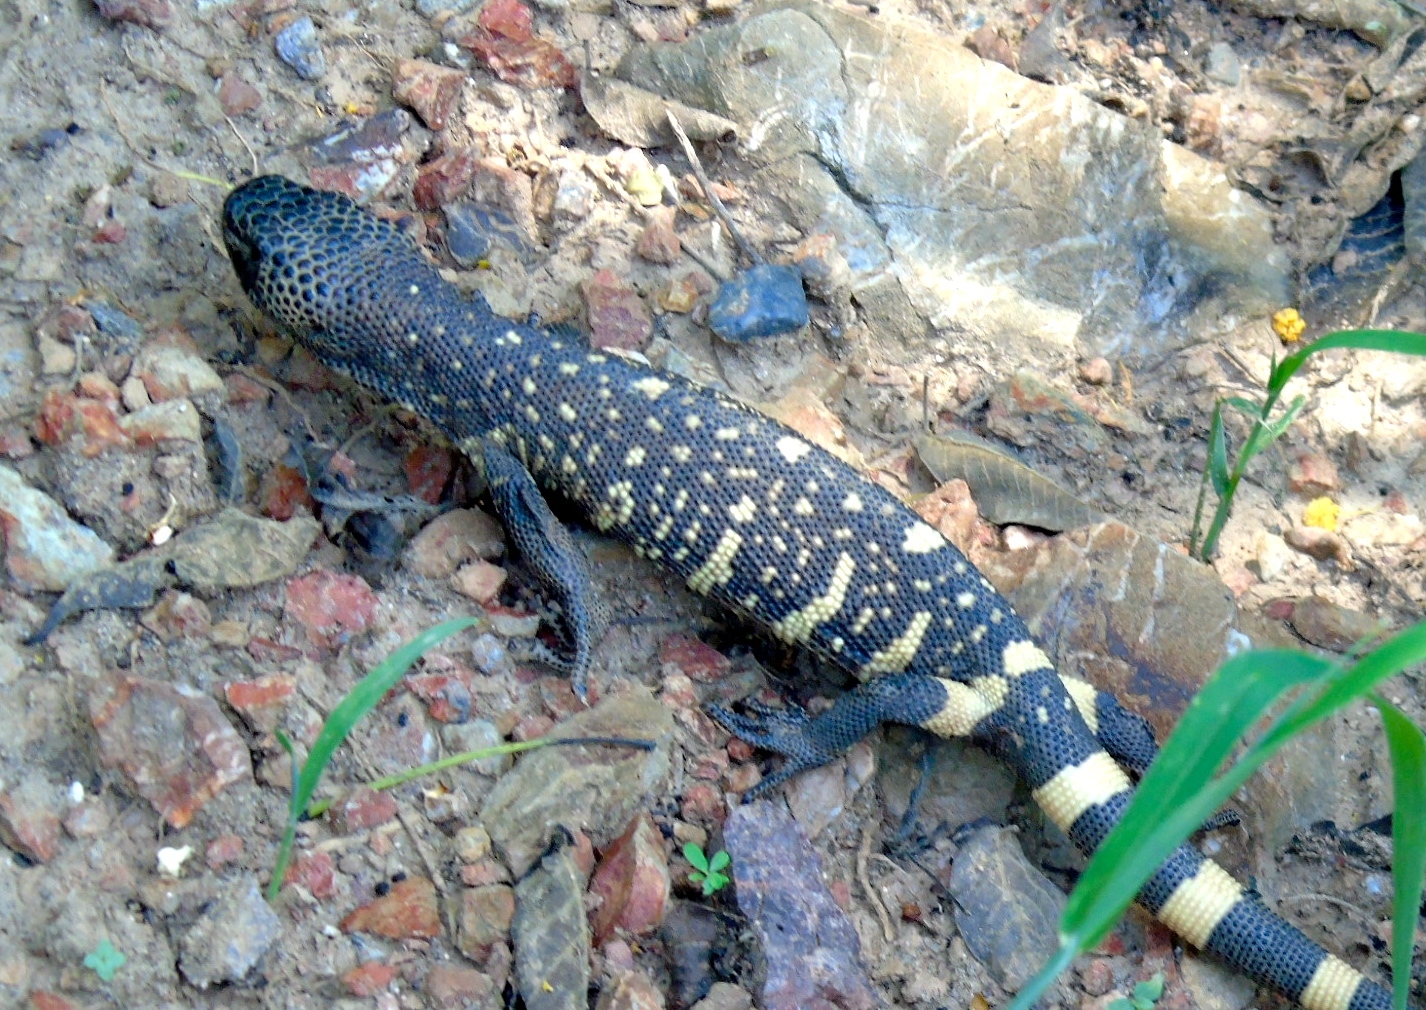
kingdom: Animalia
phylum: Chordata
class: Squamata
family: Helodermatidae
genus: Heloderma
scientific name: Heloderma horridum
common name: Mexican beaded lizard
